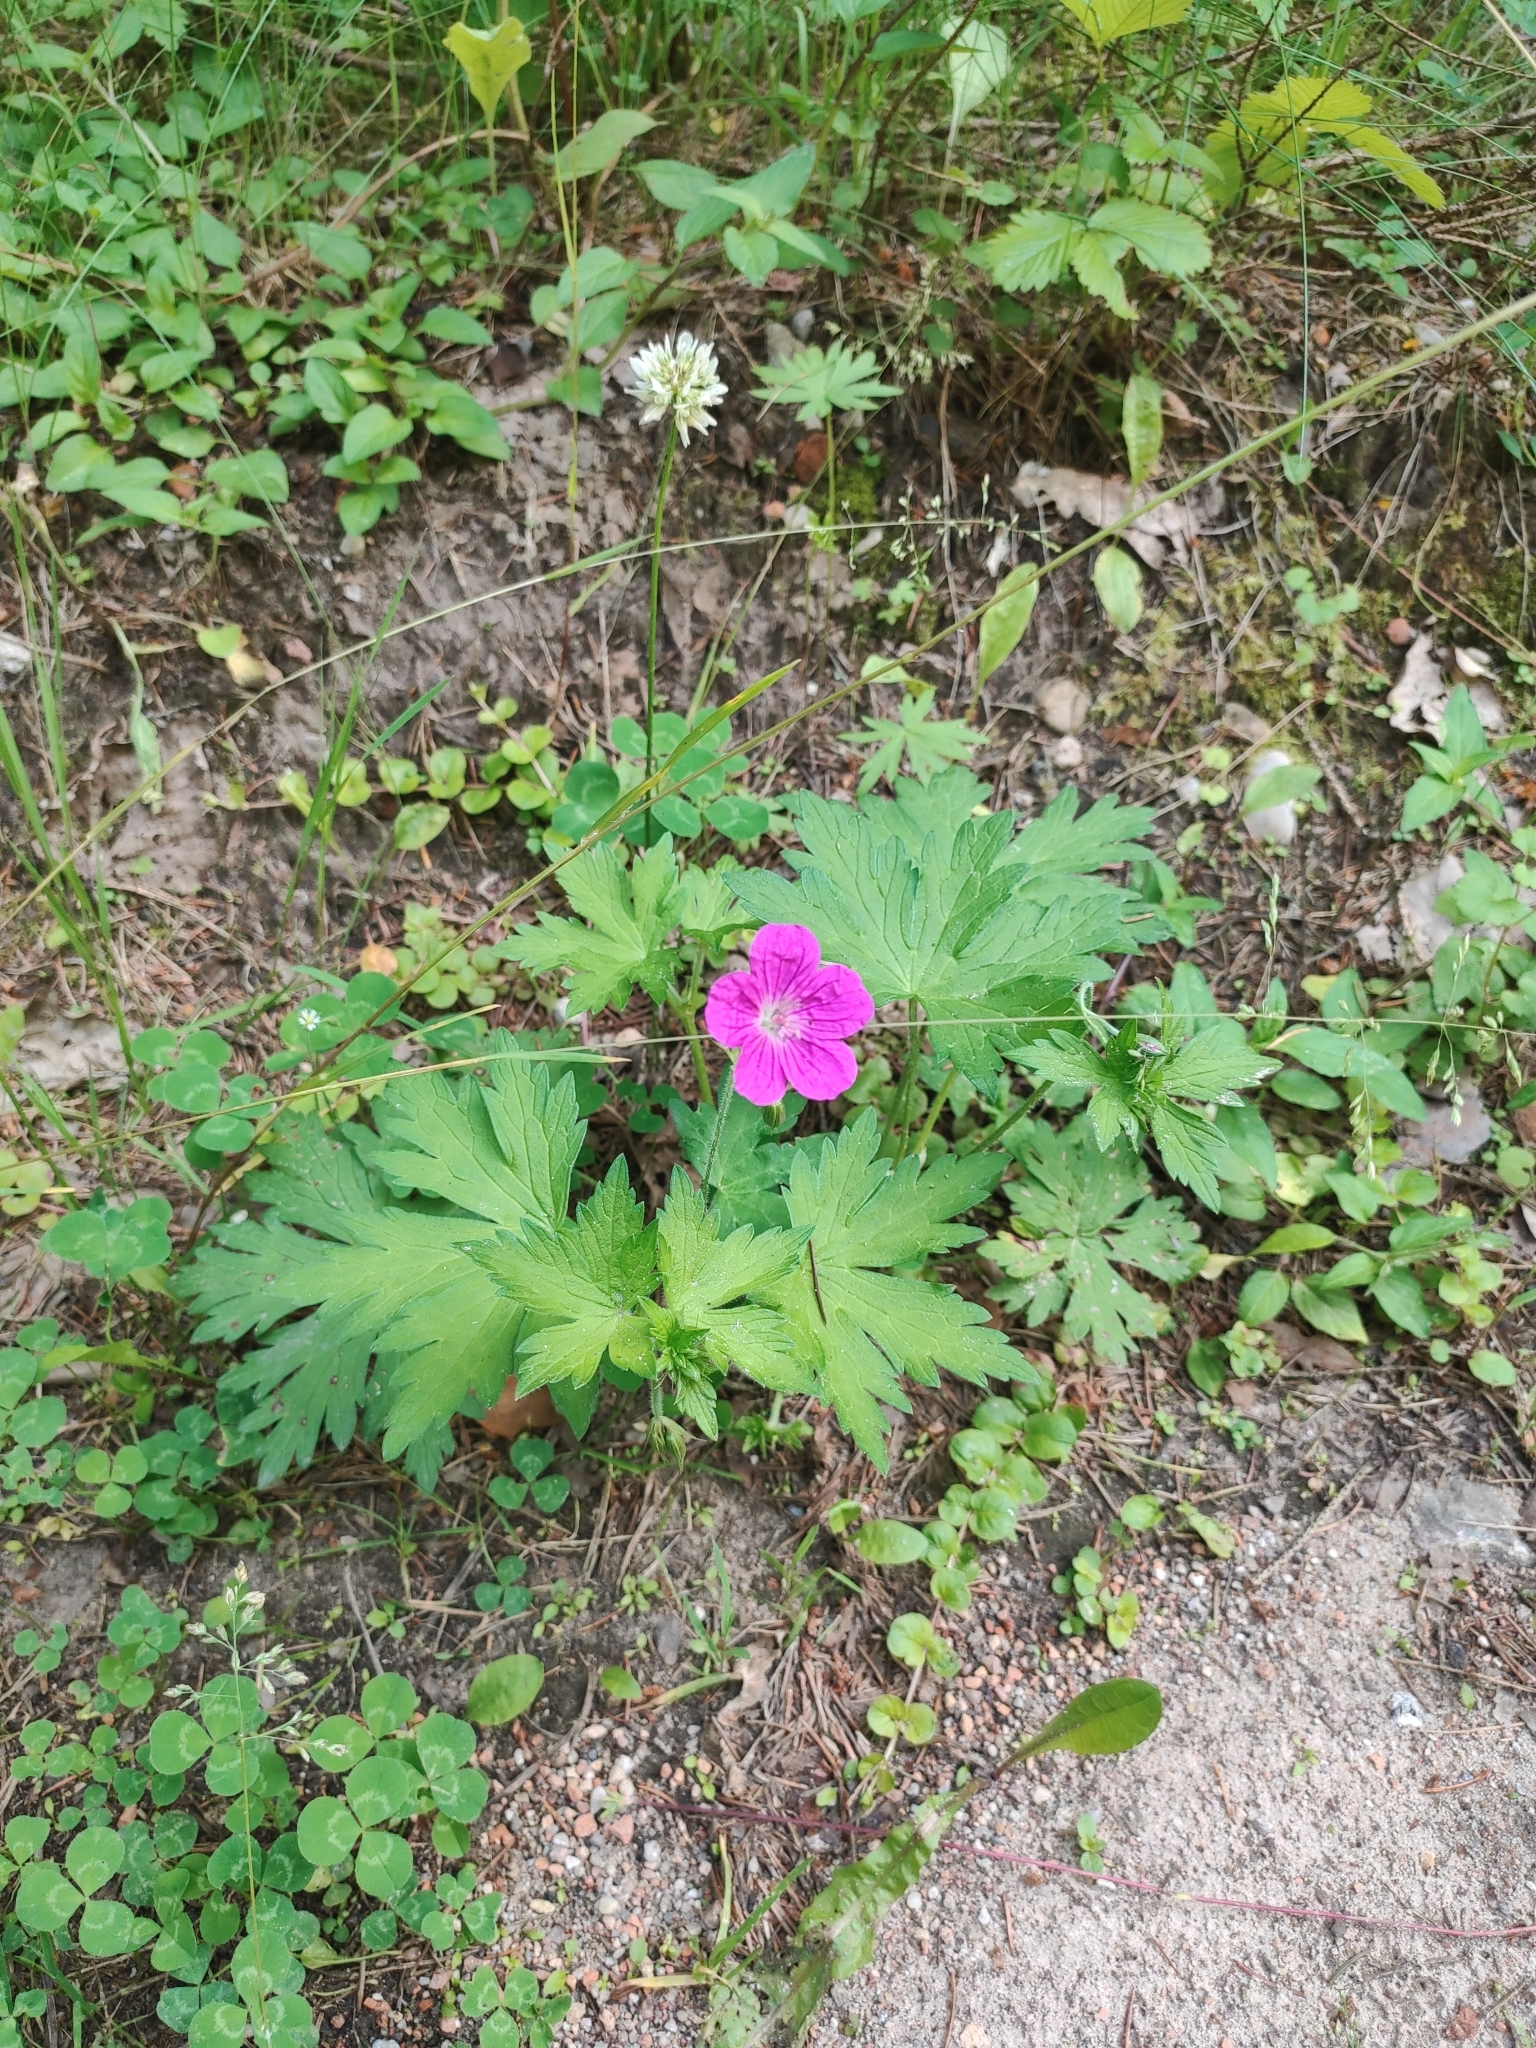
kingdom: Plantae
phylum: Tracheophyta
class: Magnoliopsida
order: Geraniales
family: Geraniaceae
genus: Geranium
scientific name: Geranium palustre
